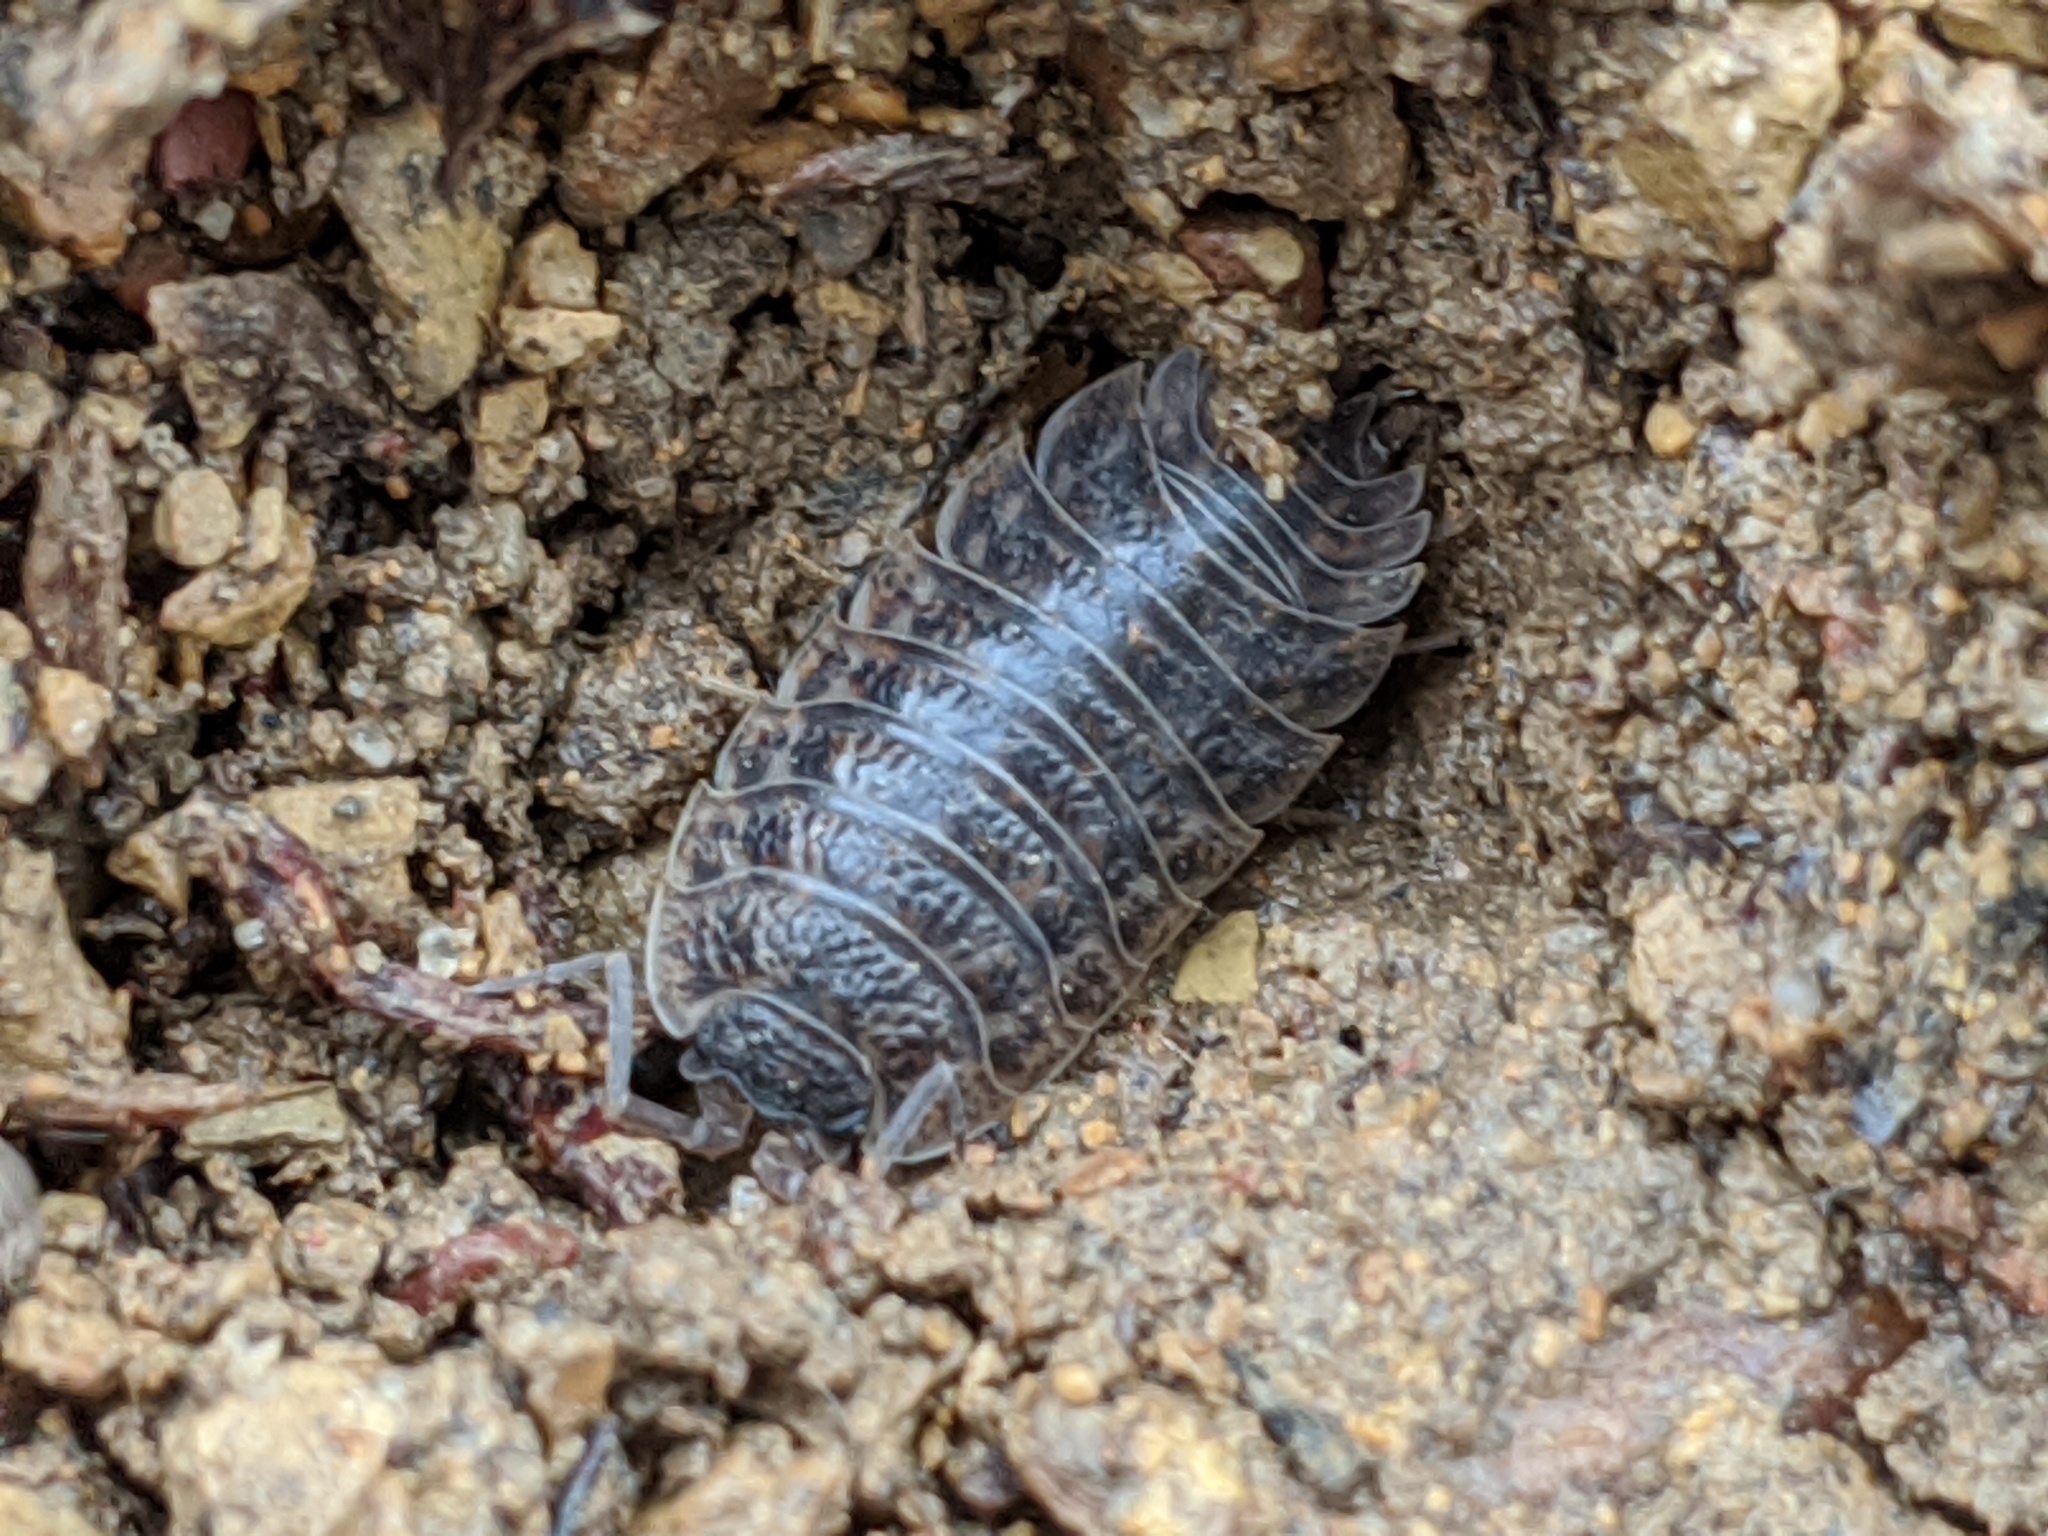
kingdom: Animalia
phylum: Arthropoda
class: Malacostraca
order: Isopoda
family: Trachelipodidae
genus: Trachelipus
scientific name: Trachelipus rathkii
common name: Isopod
